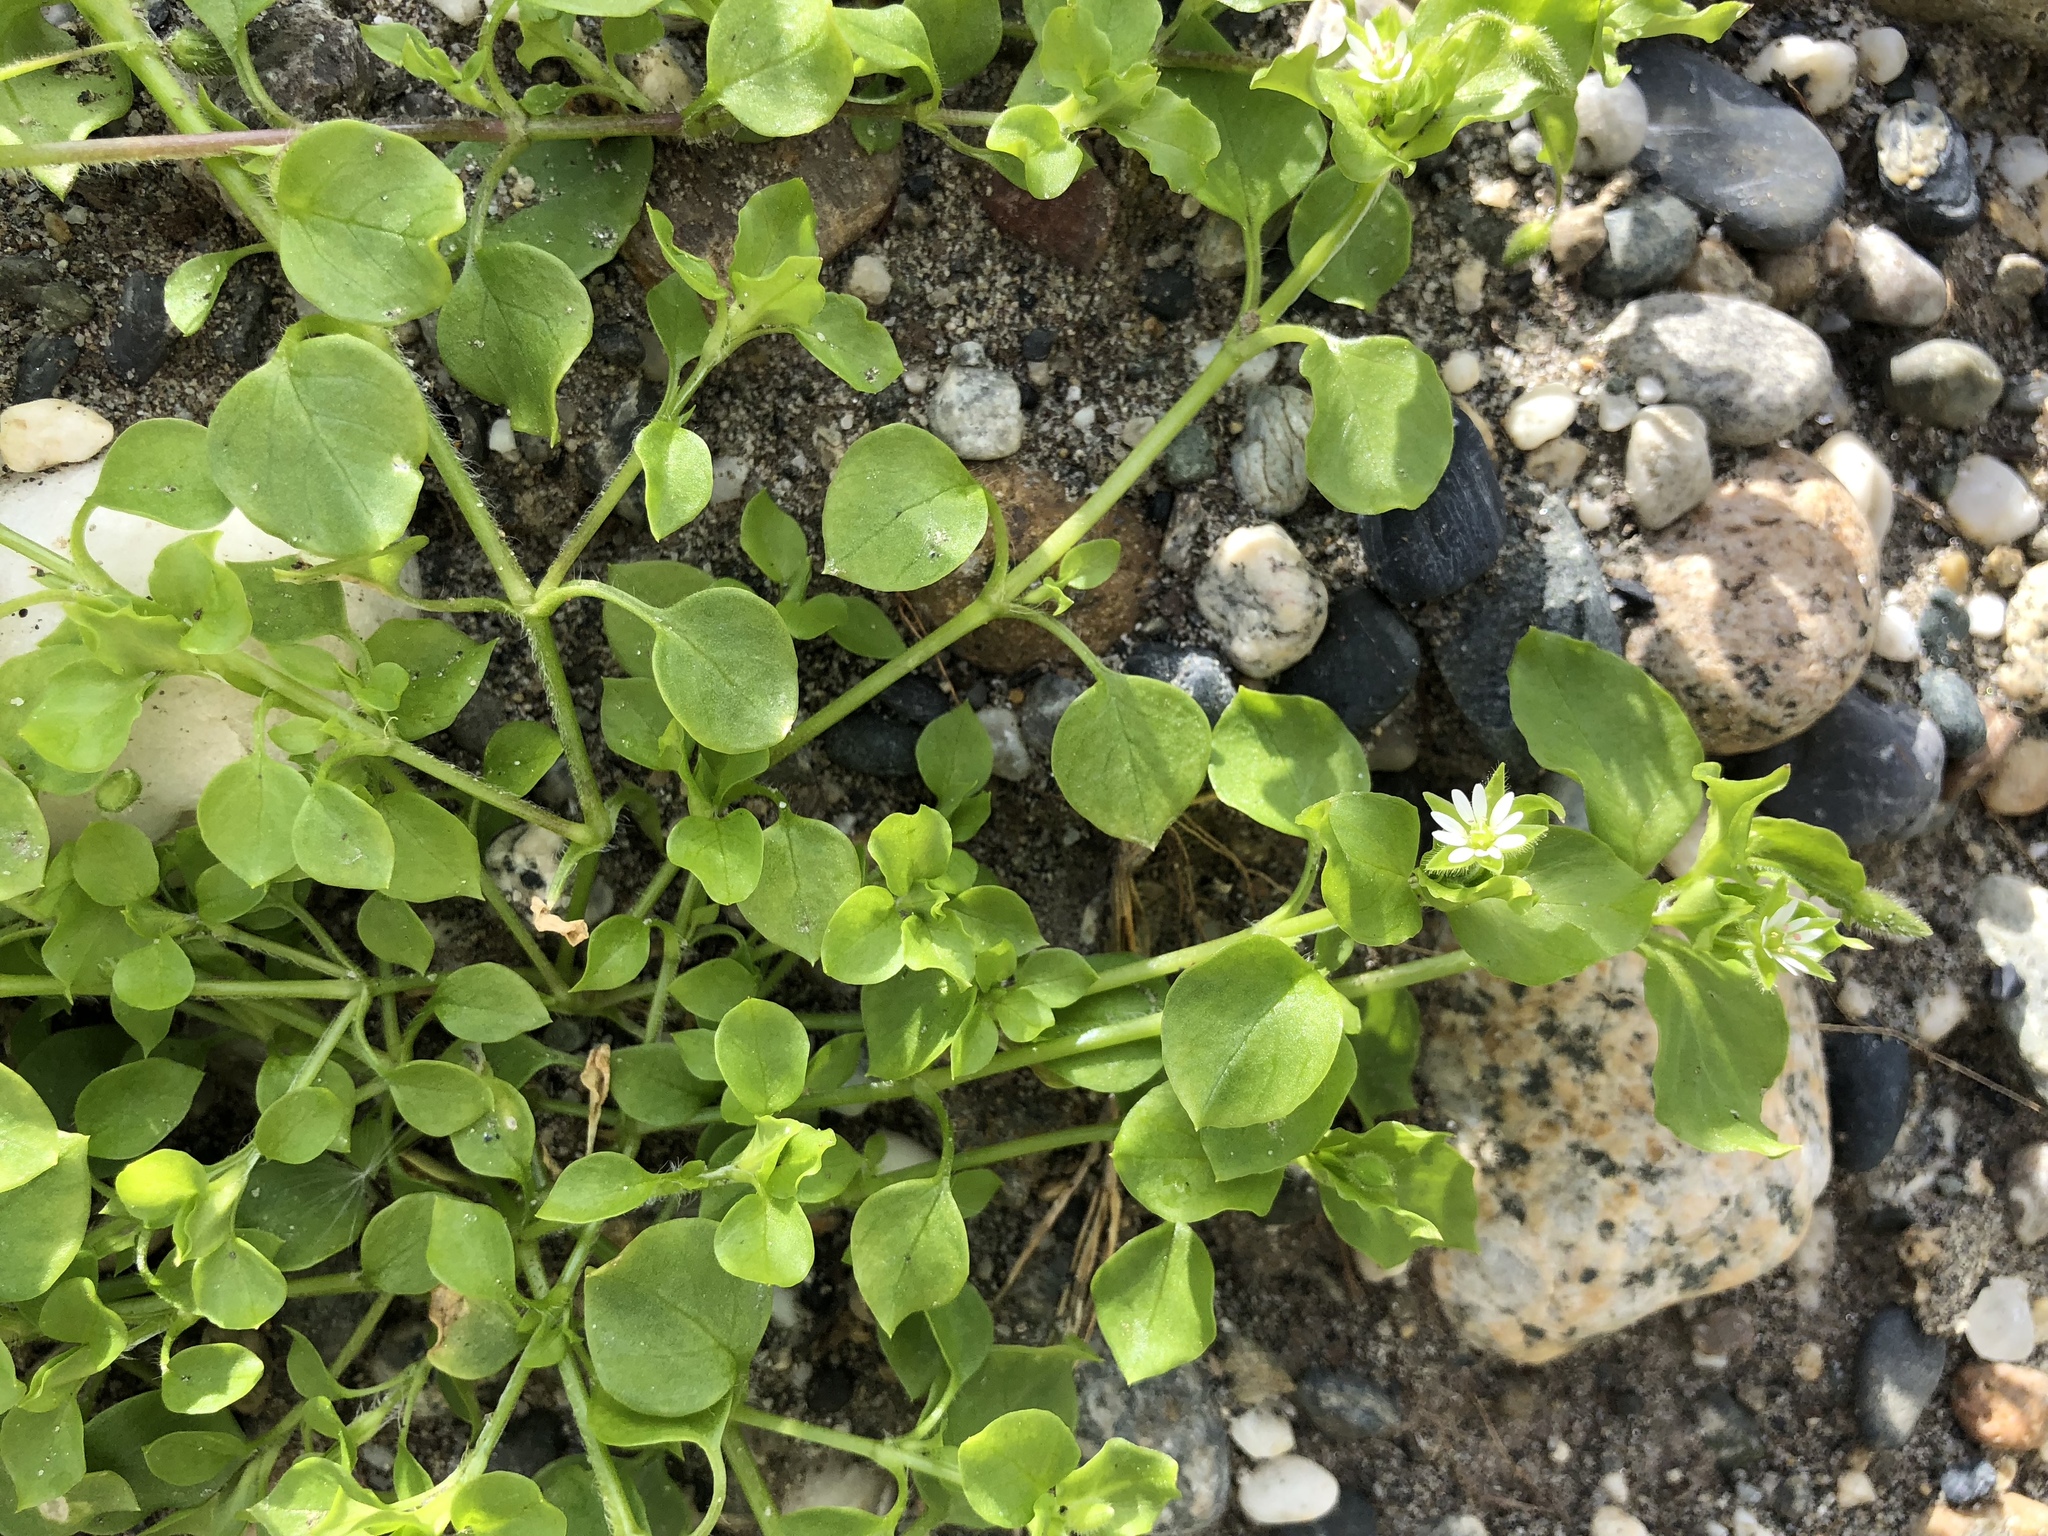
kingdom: Plantae
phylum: Tracheophyta
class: Magnoliopsida
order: Caryophyllales
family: Caryophyllaceae
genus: Stellaria
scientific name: Stellaria media
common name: Common chickweed
